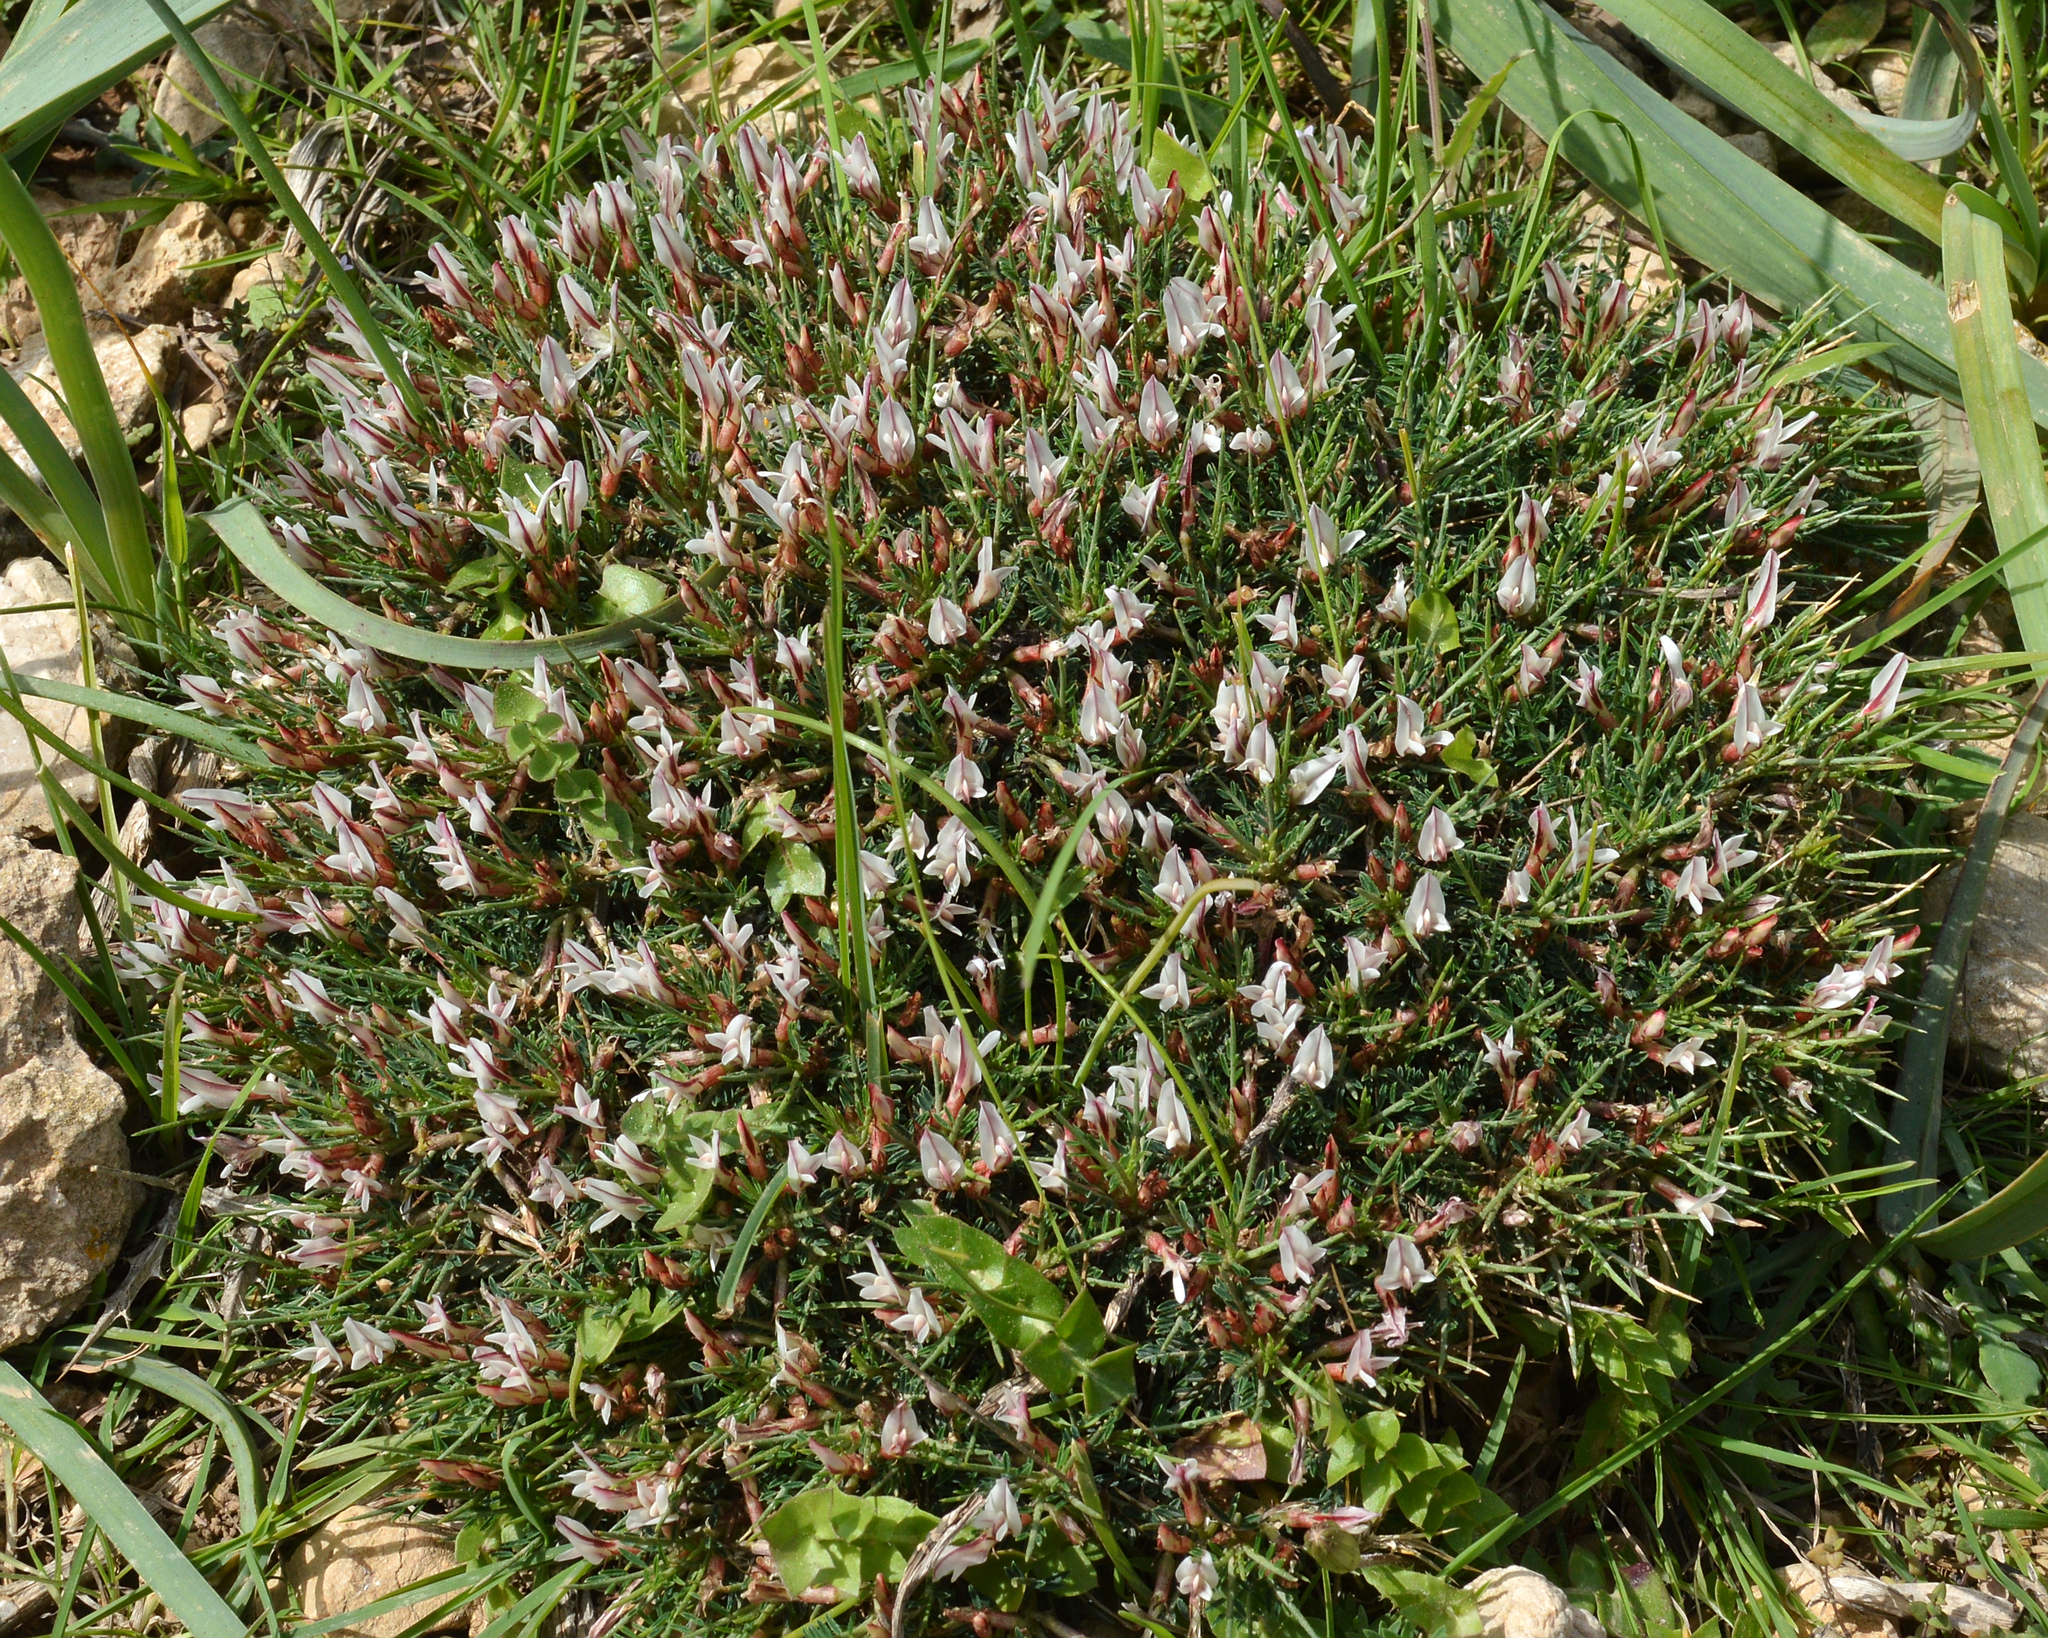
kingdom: Plantae
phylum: Tracheophyta
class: Magnoliopsida
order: Fabales
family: Fabaceae
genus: Astragalus
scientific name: Astragalus balearicus
